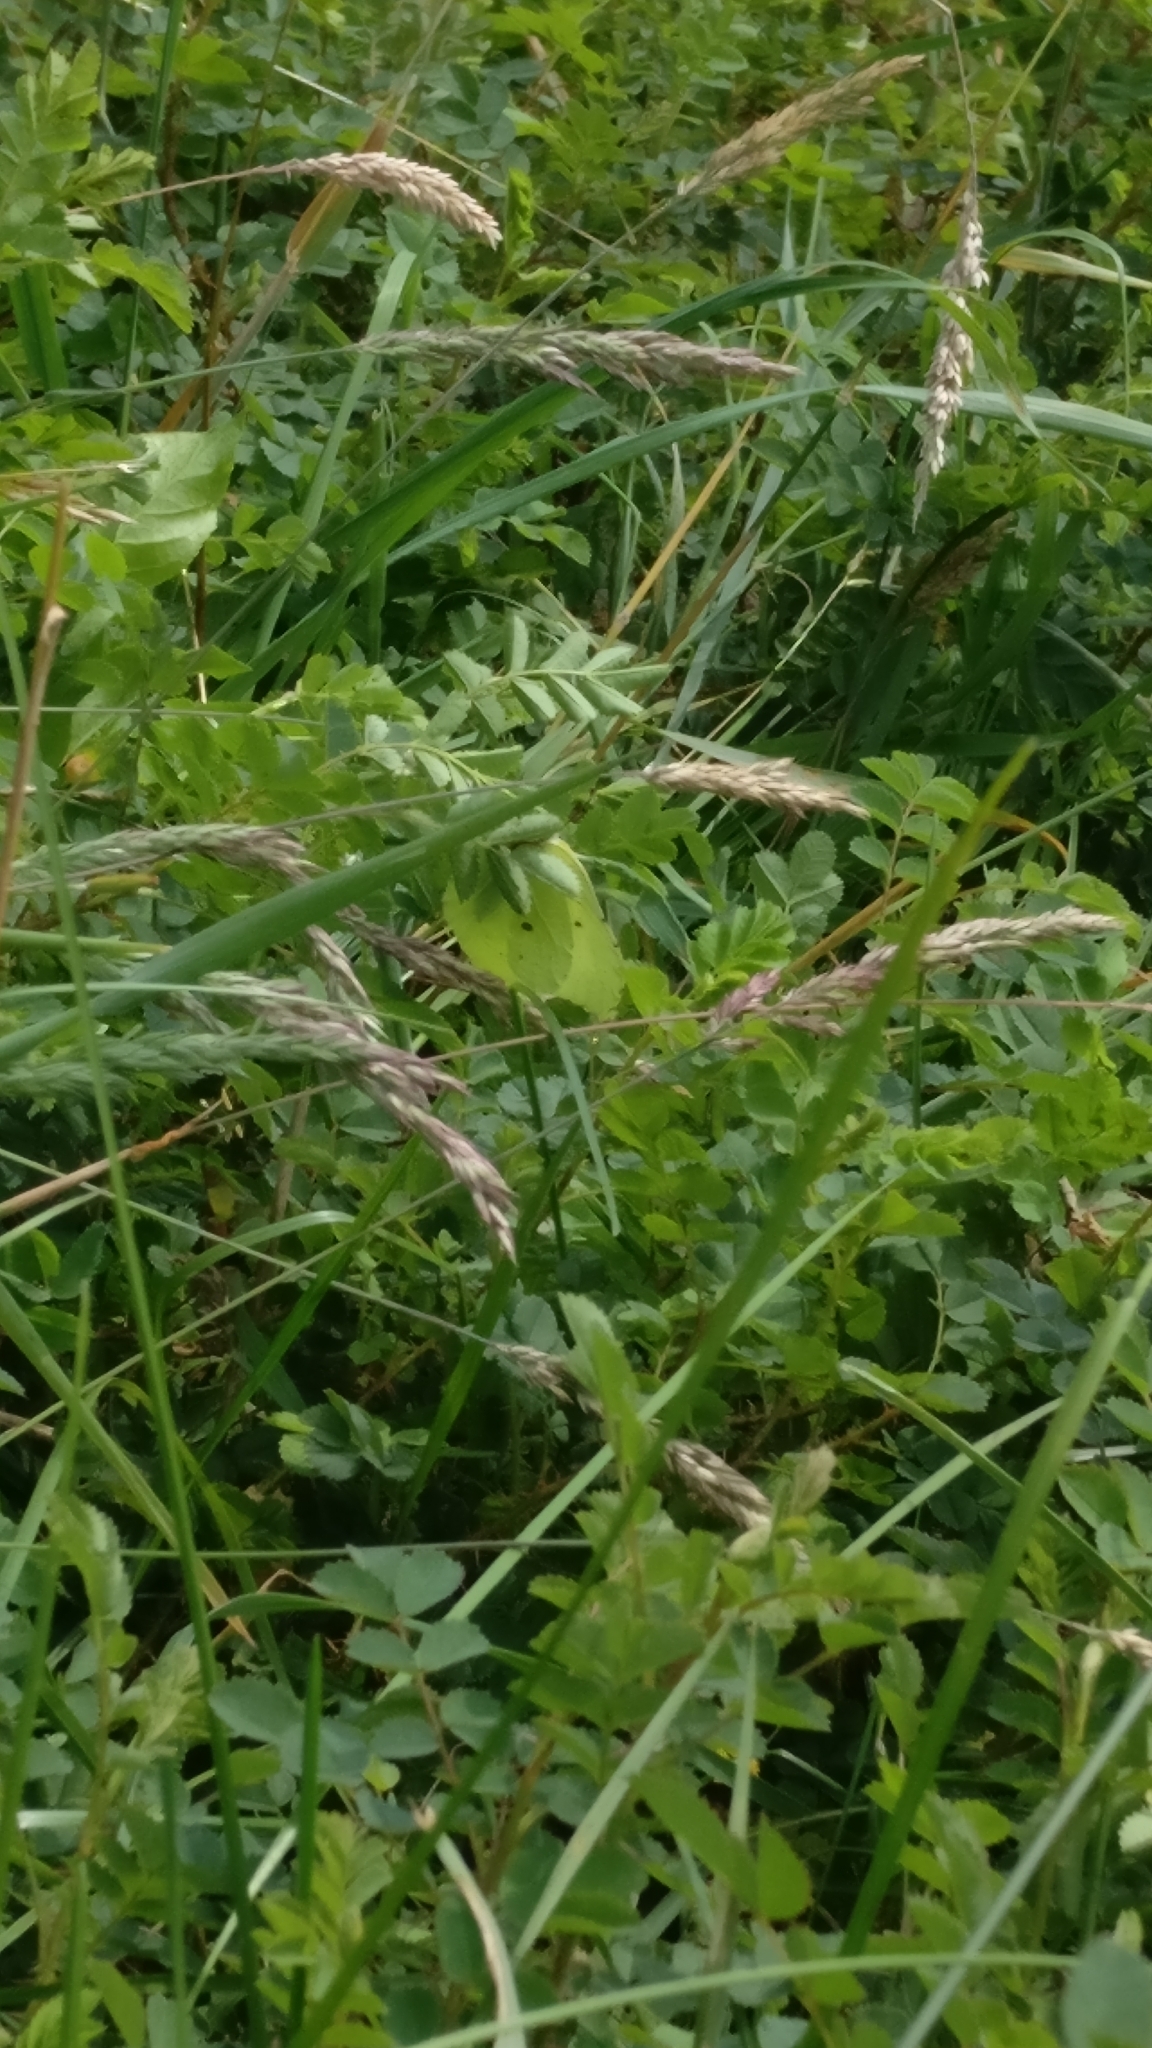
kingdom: Animalia
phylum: Arthropoda
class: Insecta
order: Lepidoptera
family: Pieridae
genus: Gonepteryx
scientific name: Gonepteryx rhamni
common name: Brimstone
